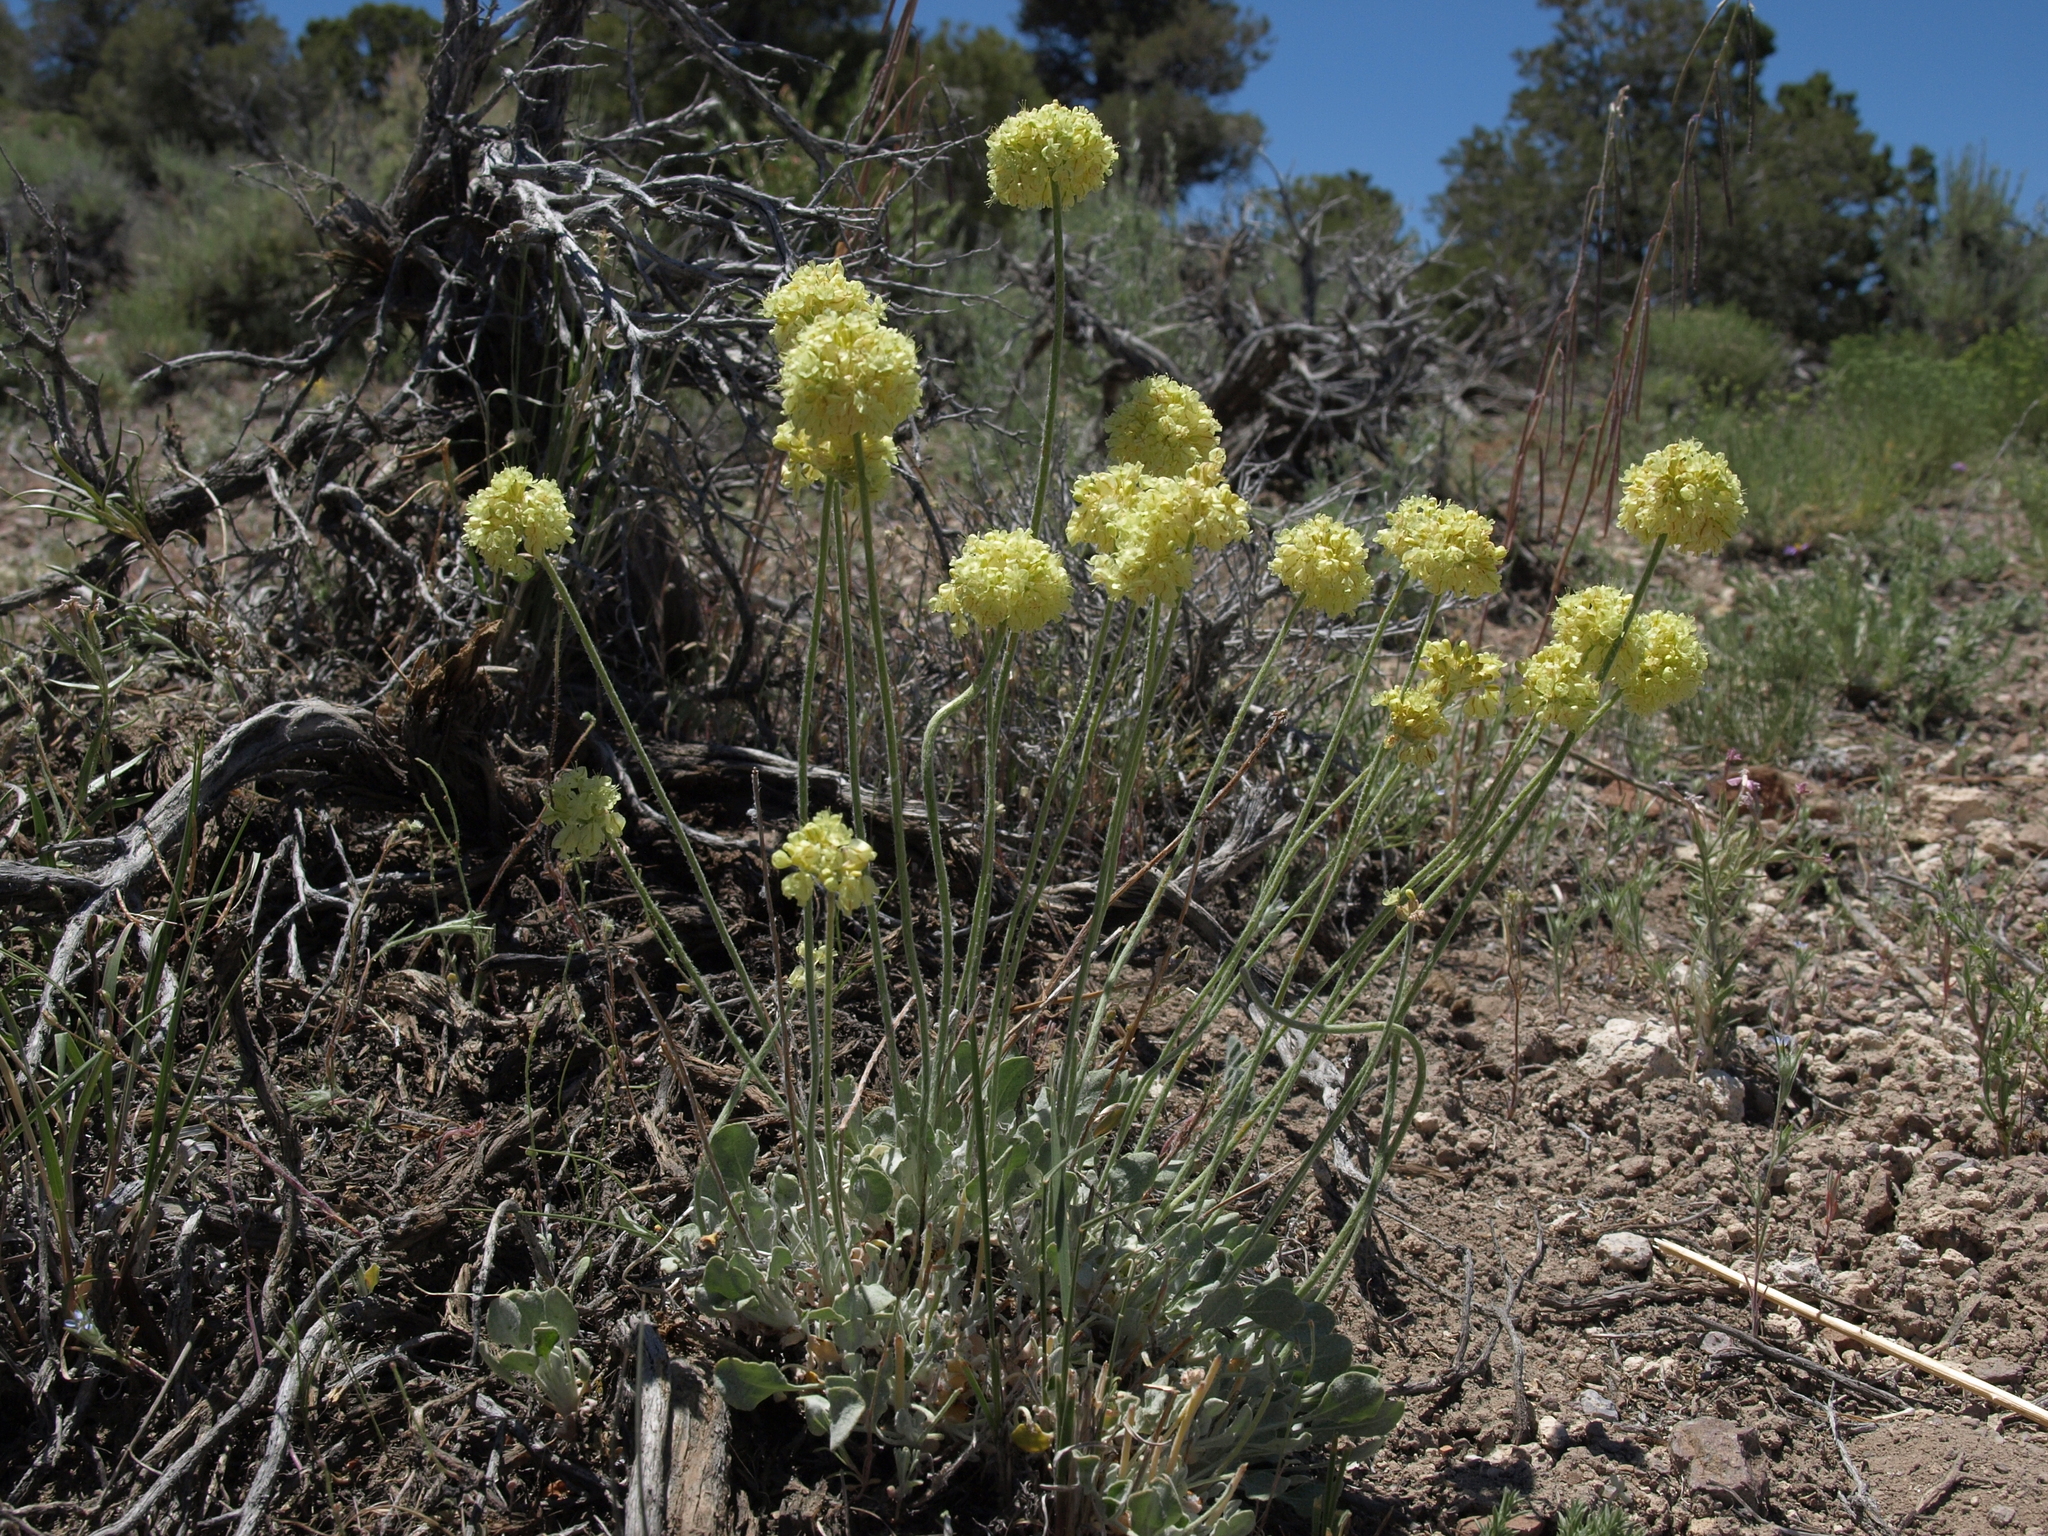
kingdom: Plantae
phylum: Tracheophyta
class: Magnoliopsida
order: Caryophyllales
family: Polygonaceae
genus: Eriogonum
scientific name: Eriogonum ovalifolium
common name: Cushion buckwheat
